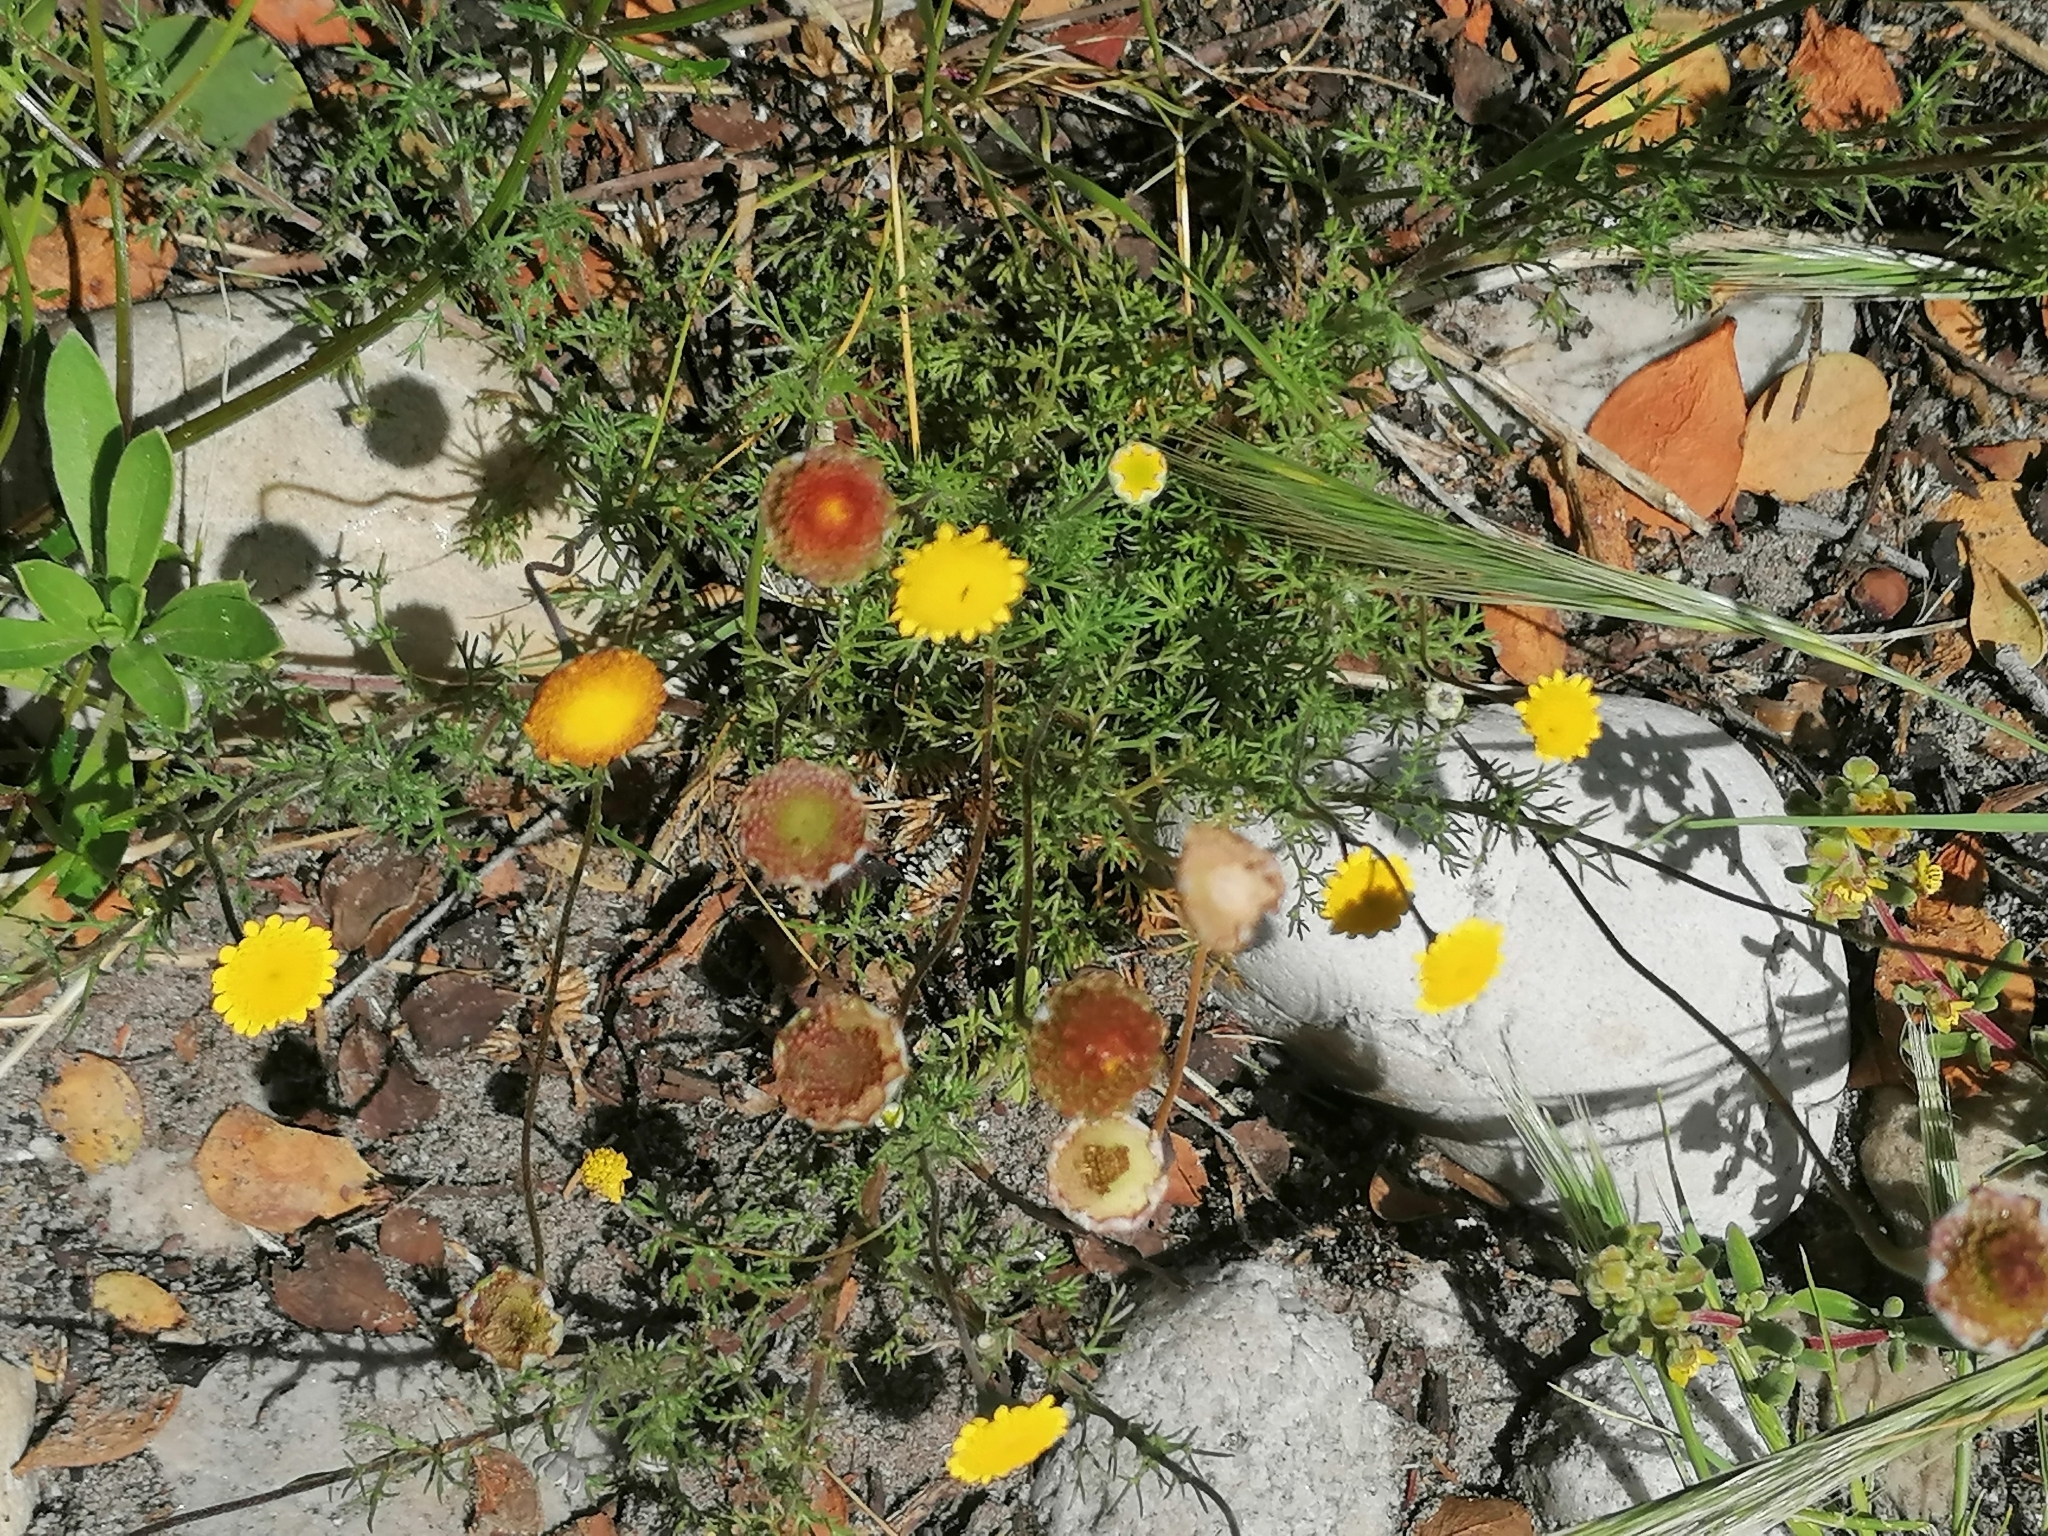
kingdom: Plantae
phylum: Tracheophyta
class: Magnoliopsida
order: Asterales
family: Asteraceae
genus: Cotula
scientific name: Cotula pruinosa
